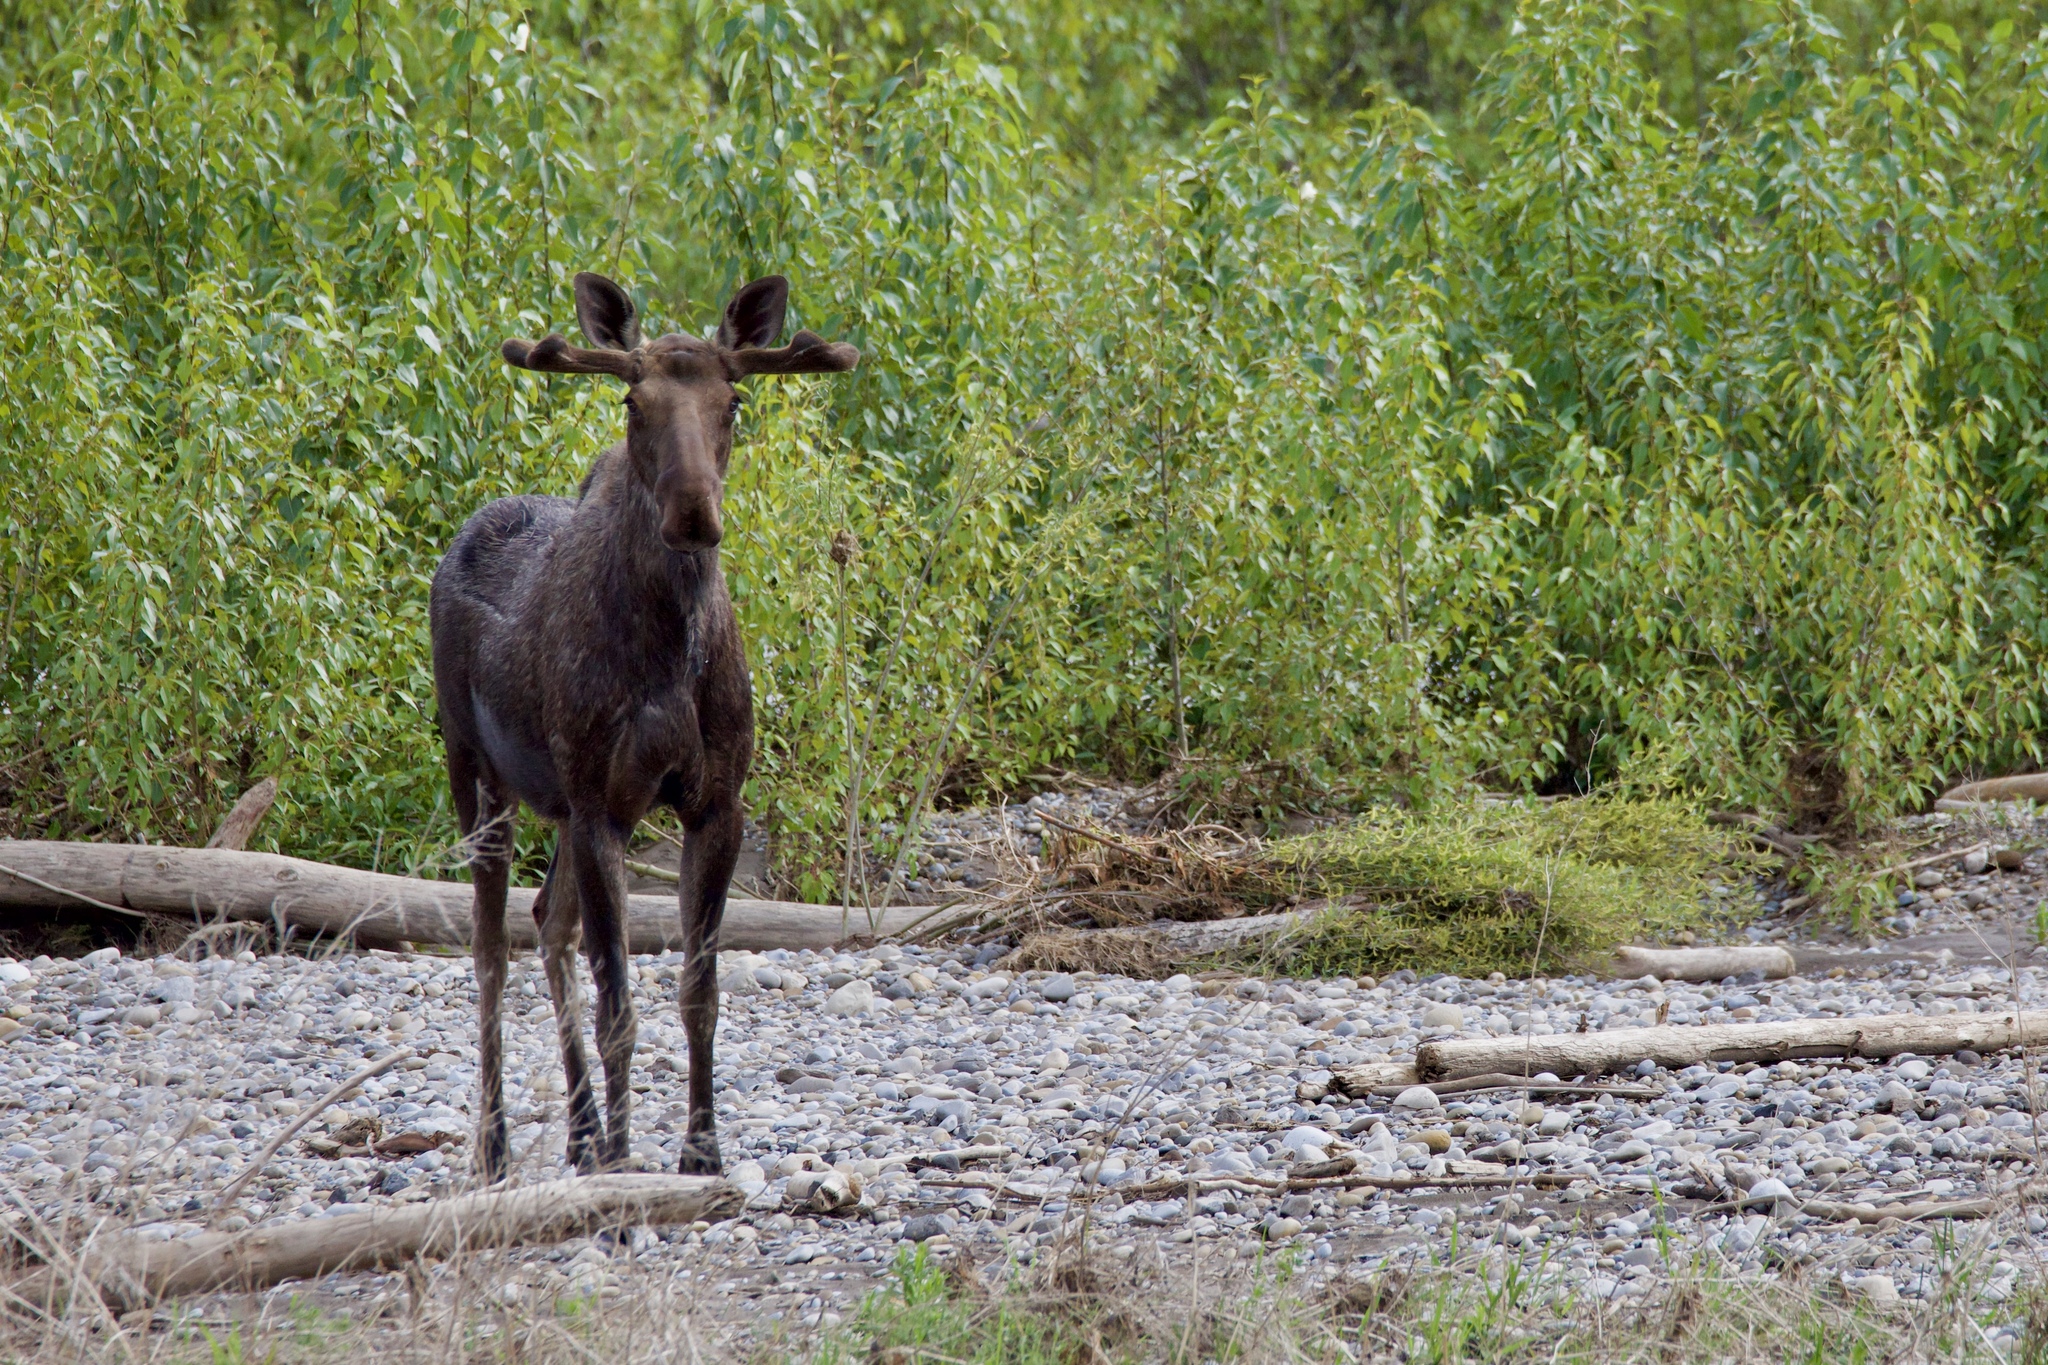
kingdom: Animalia
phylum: Chordata
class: Mammalia
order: Artiodactyla
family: Cervidae
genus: Alces
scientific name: Alces alces
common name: Moose
